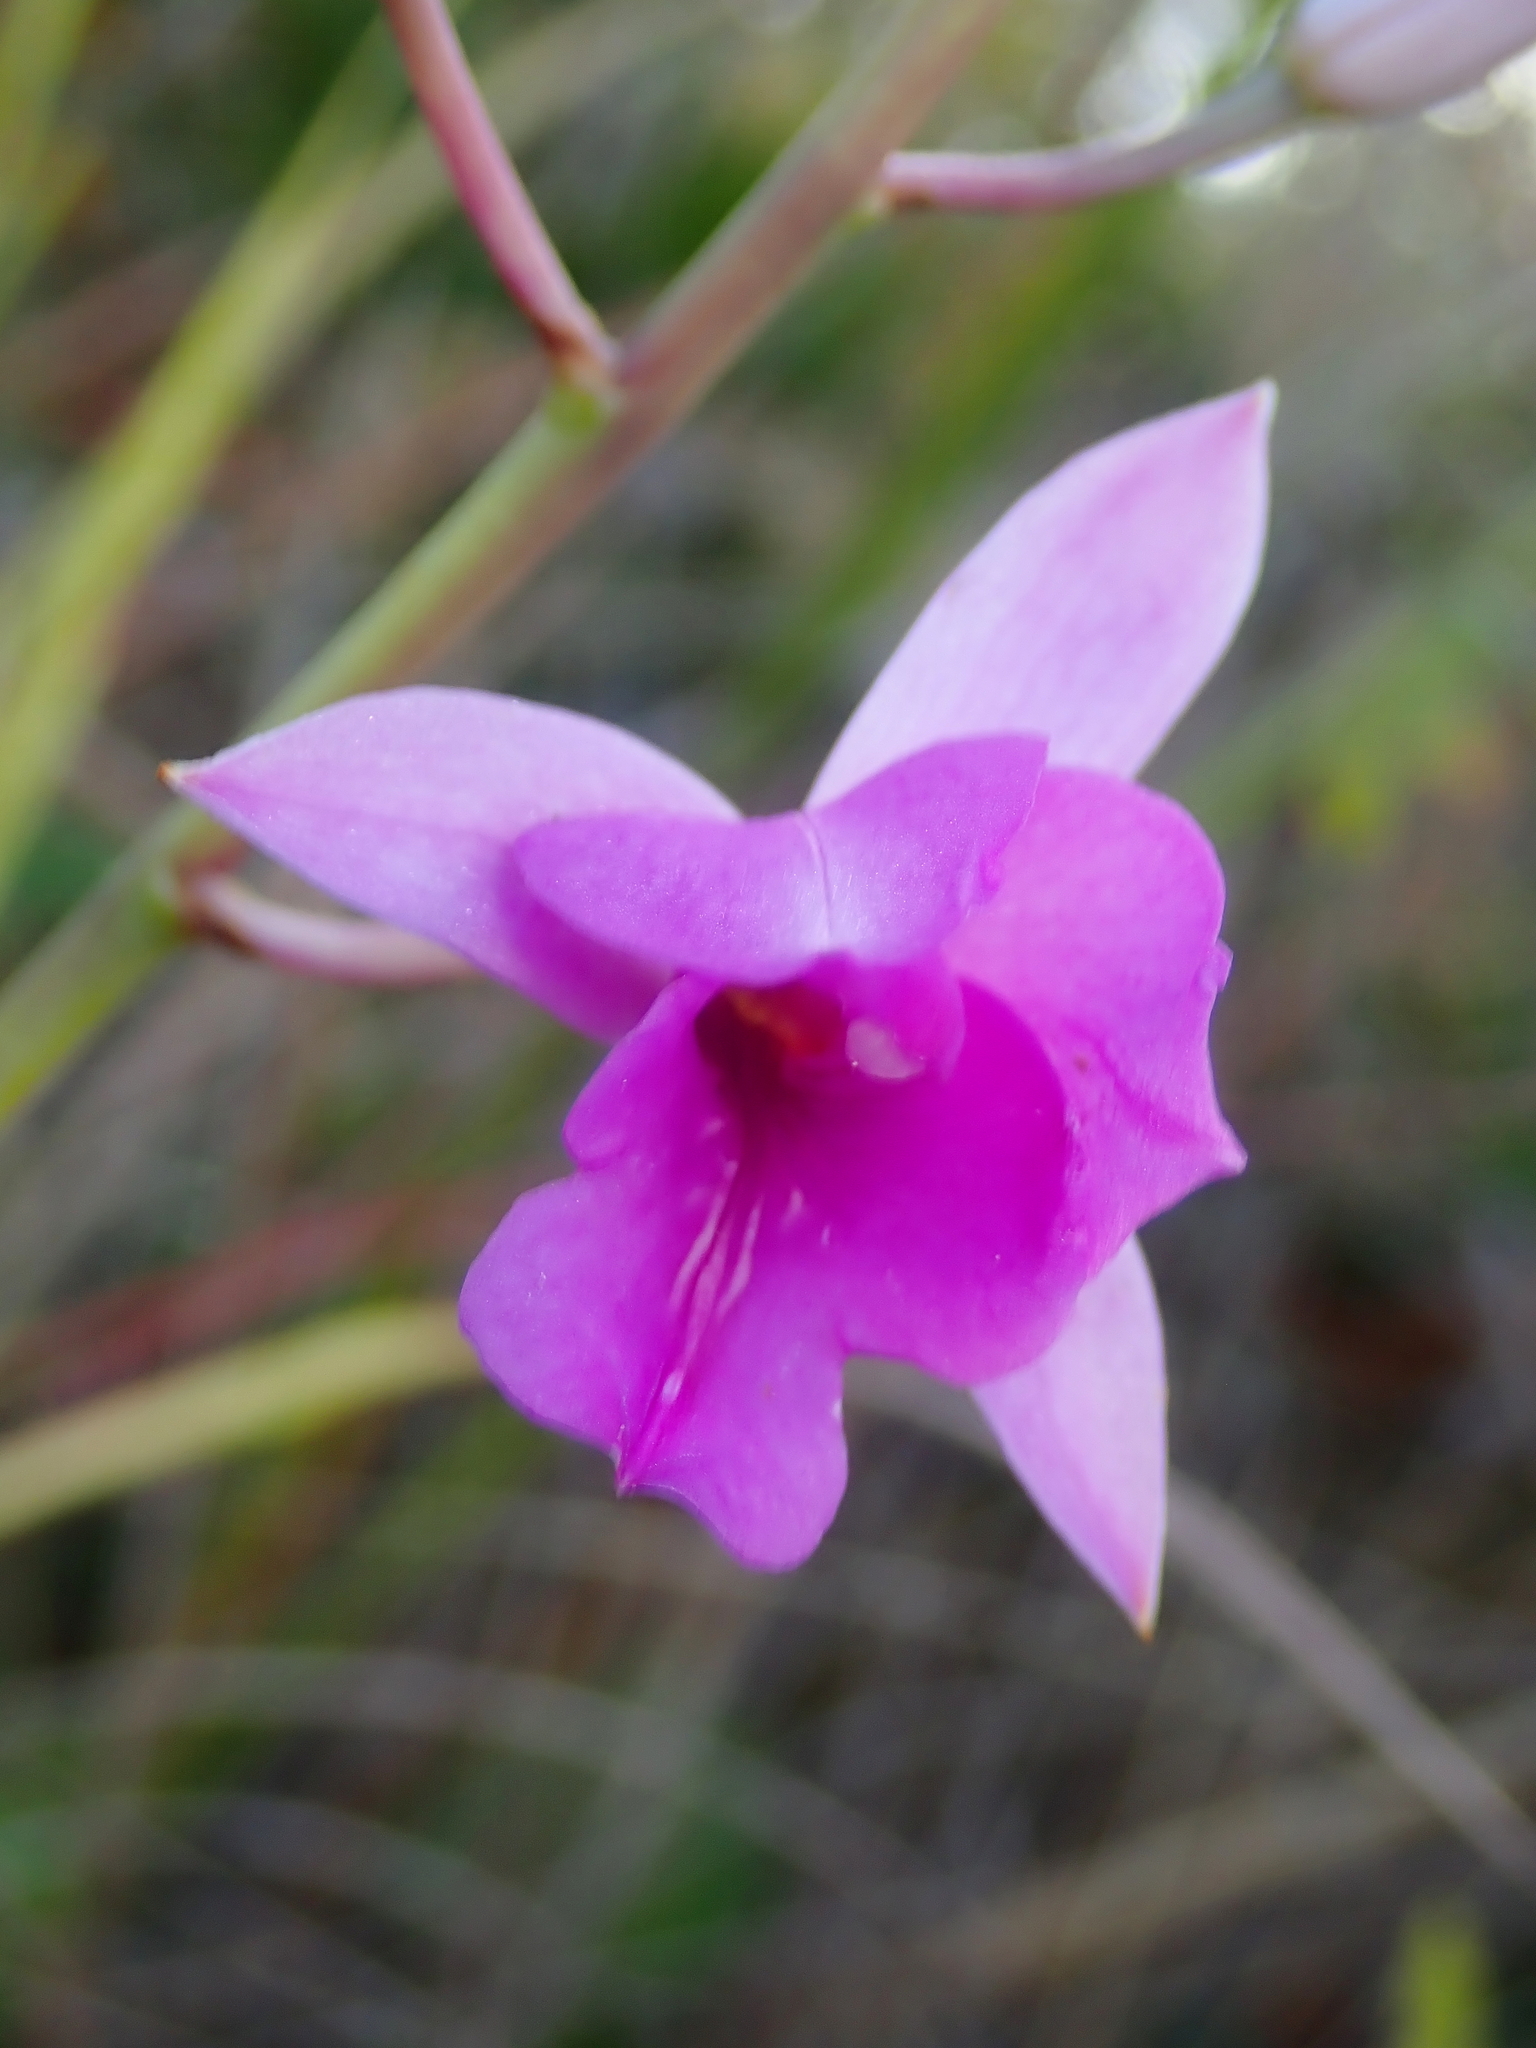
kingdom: Plantae
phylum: Tracheophyta
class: Liliopsida
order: Asparagales
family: Orchidaceae
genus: Bletia
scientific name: Bletia catenulata
